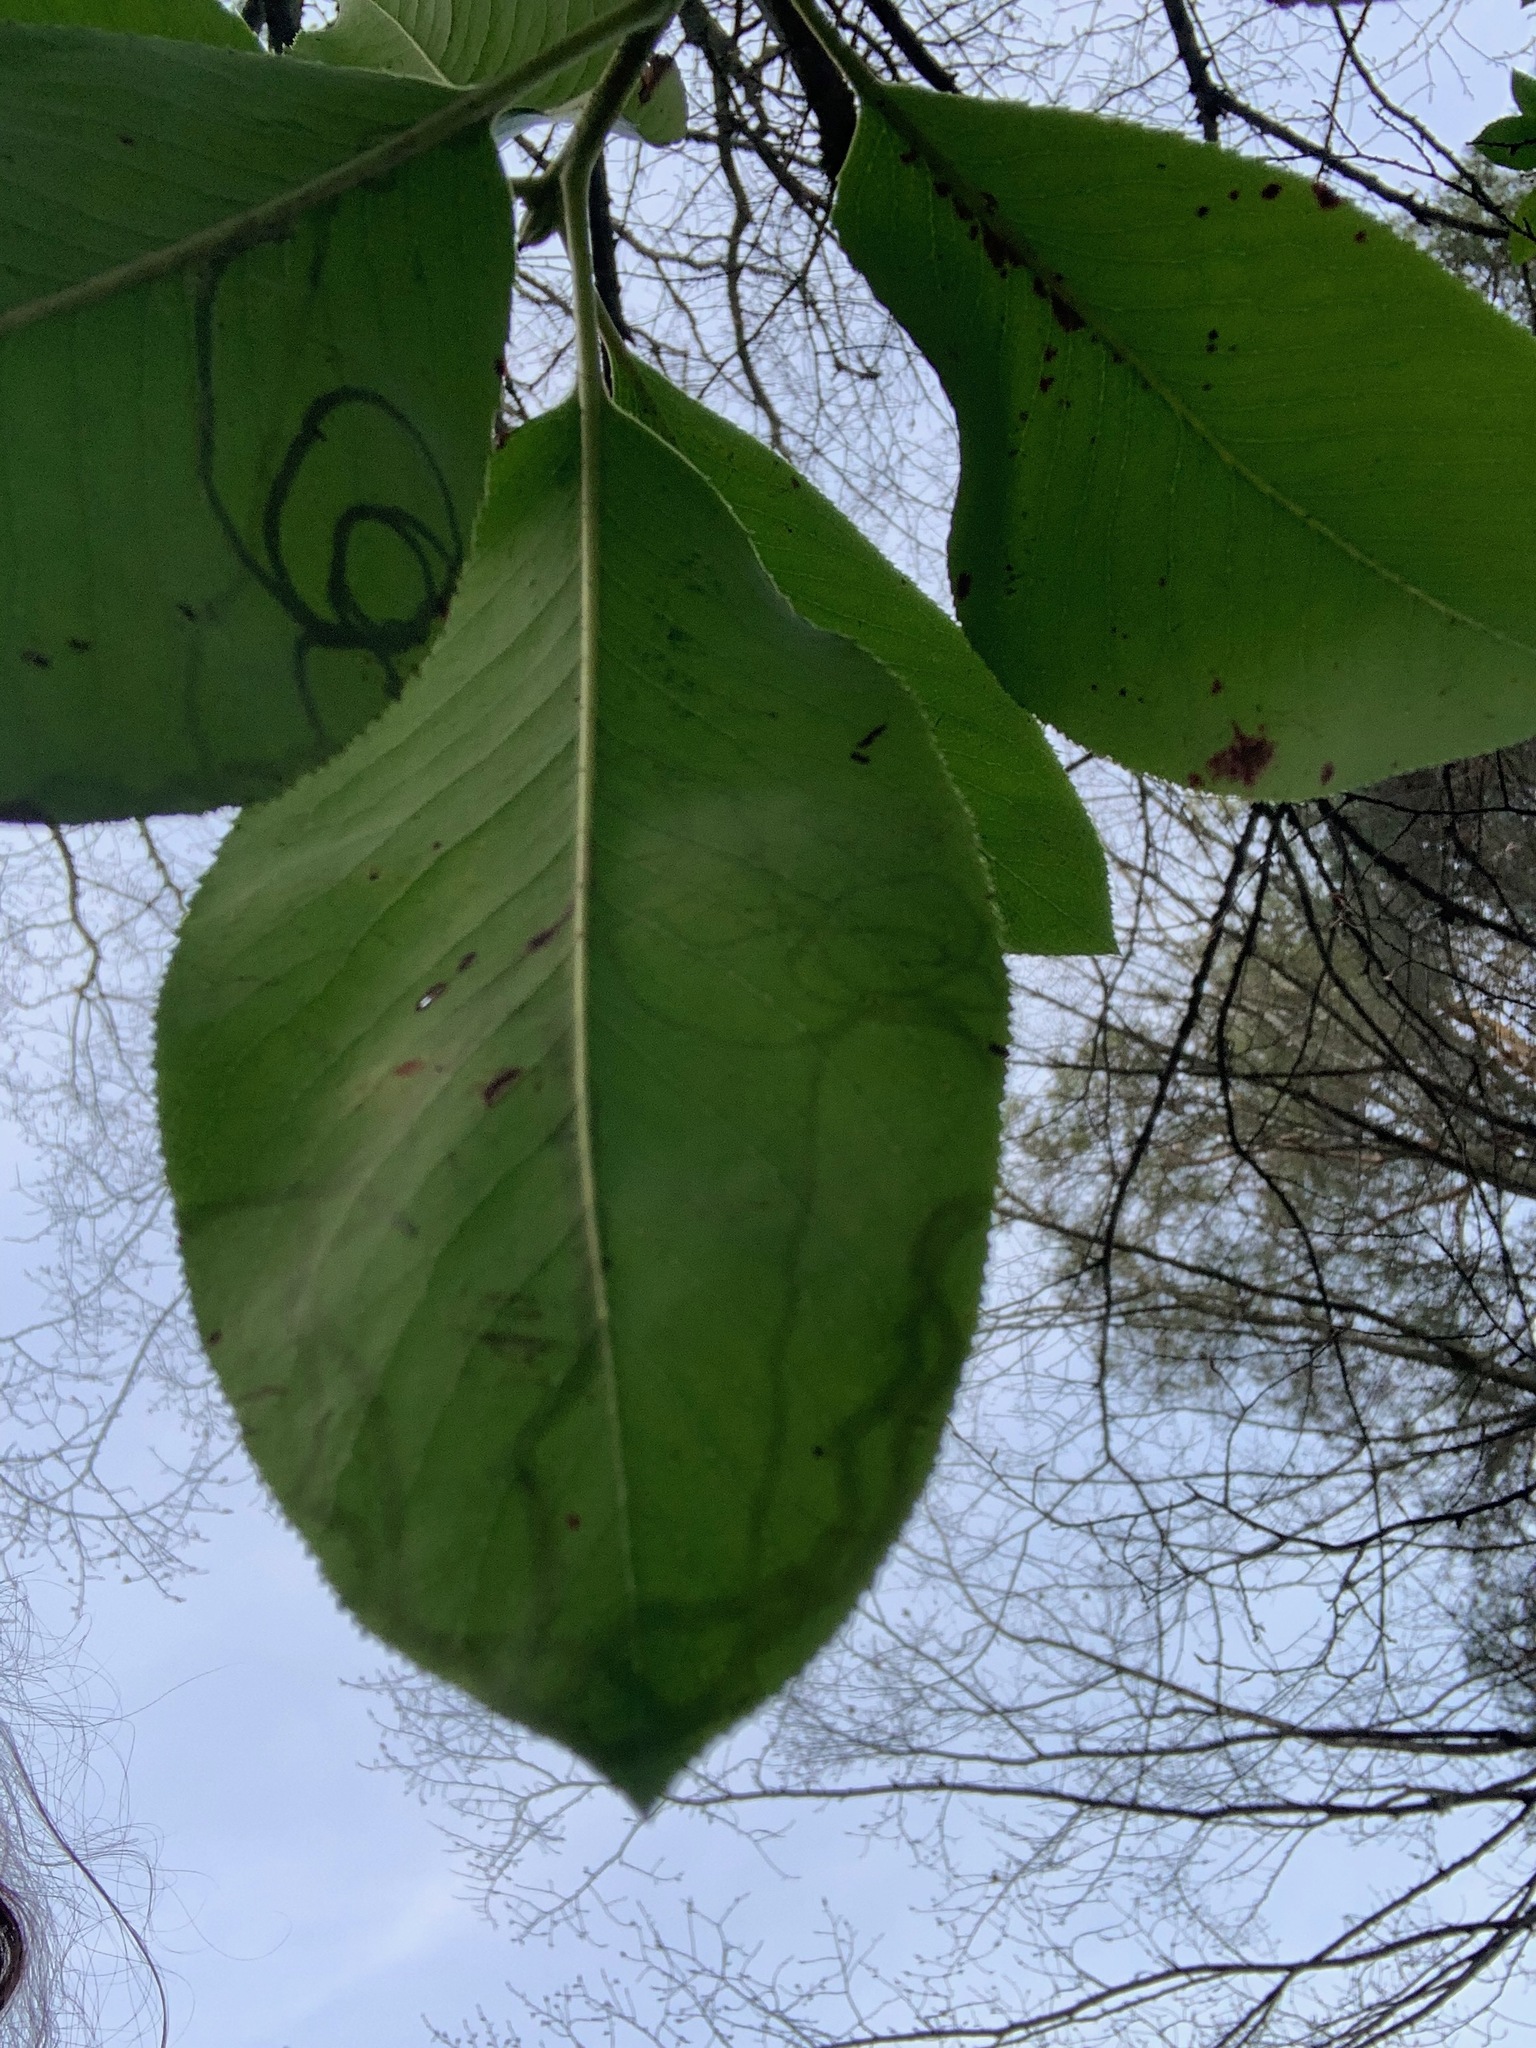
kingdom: Animalia
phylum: Arthropoda
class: Insecta
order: Lepidoptera
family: Gracillariidae
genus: Marmara
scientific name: Marmara arbutiella
